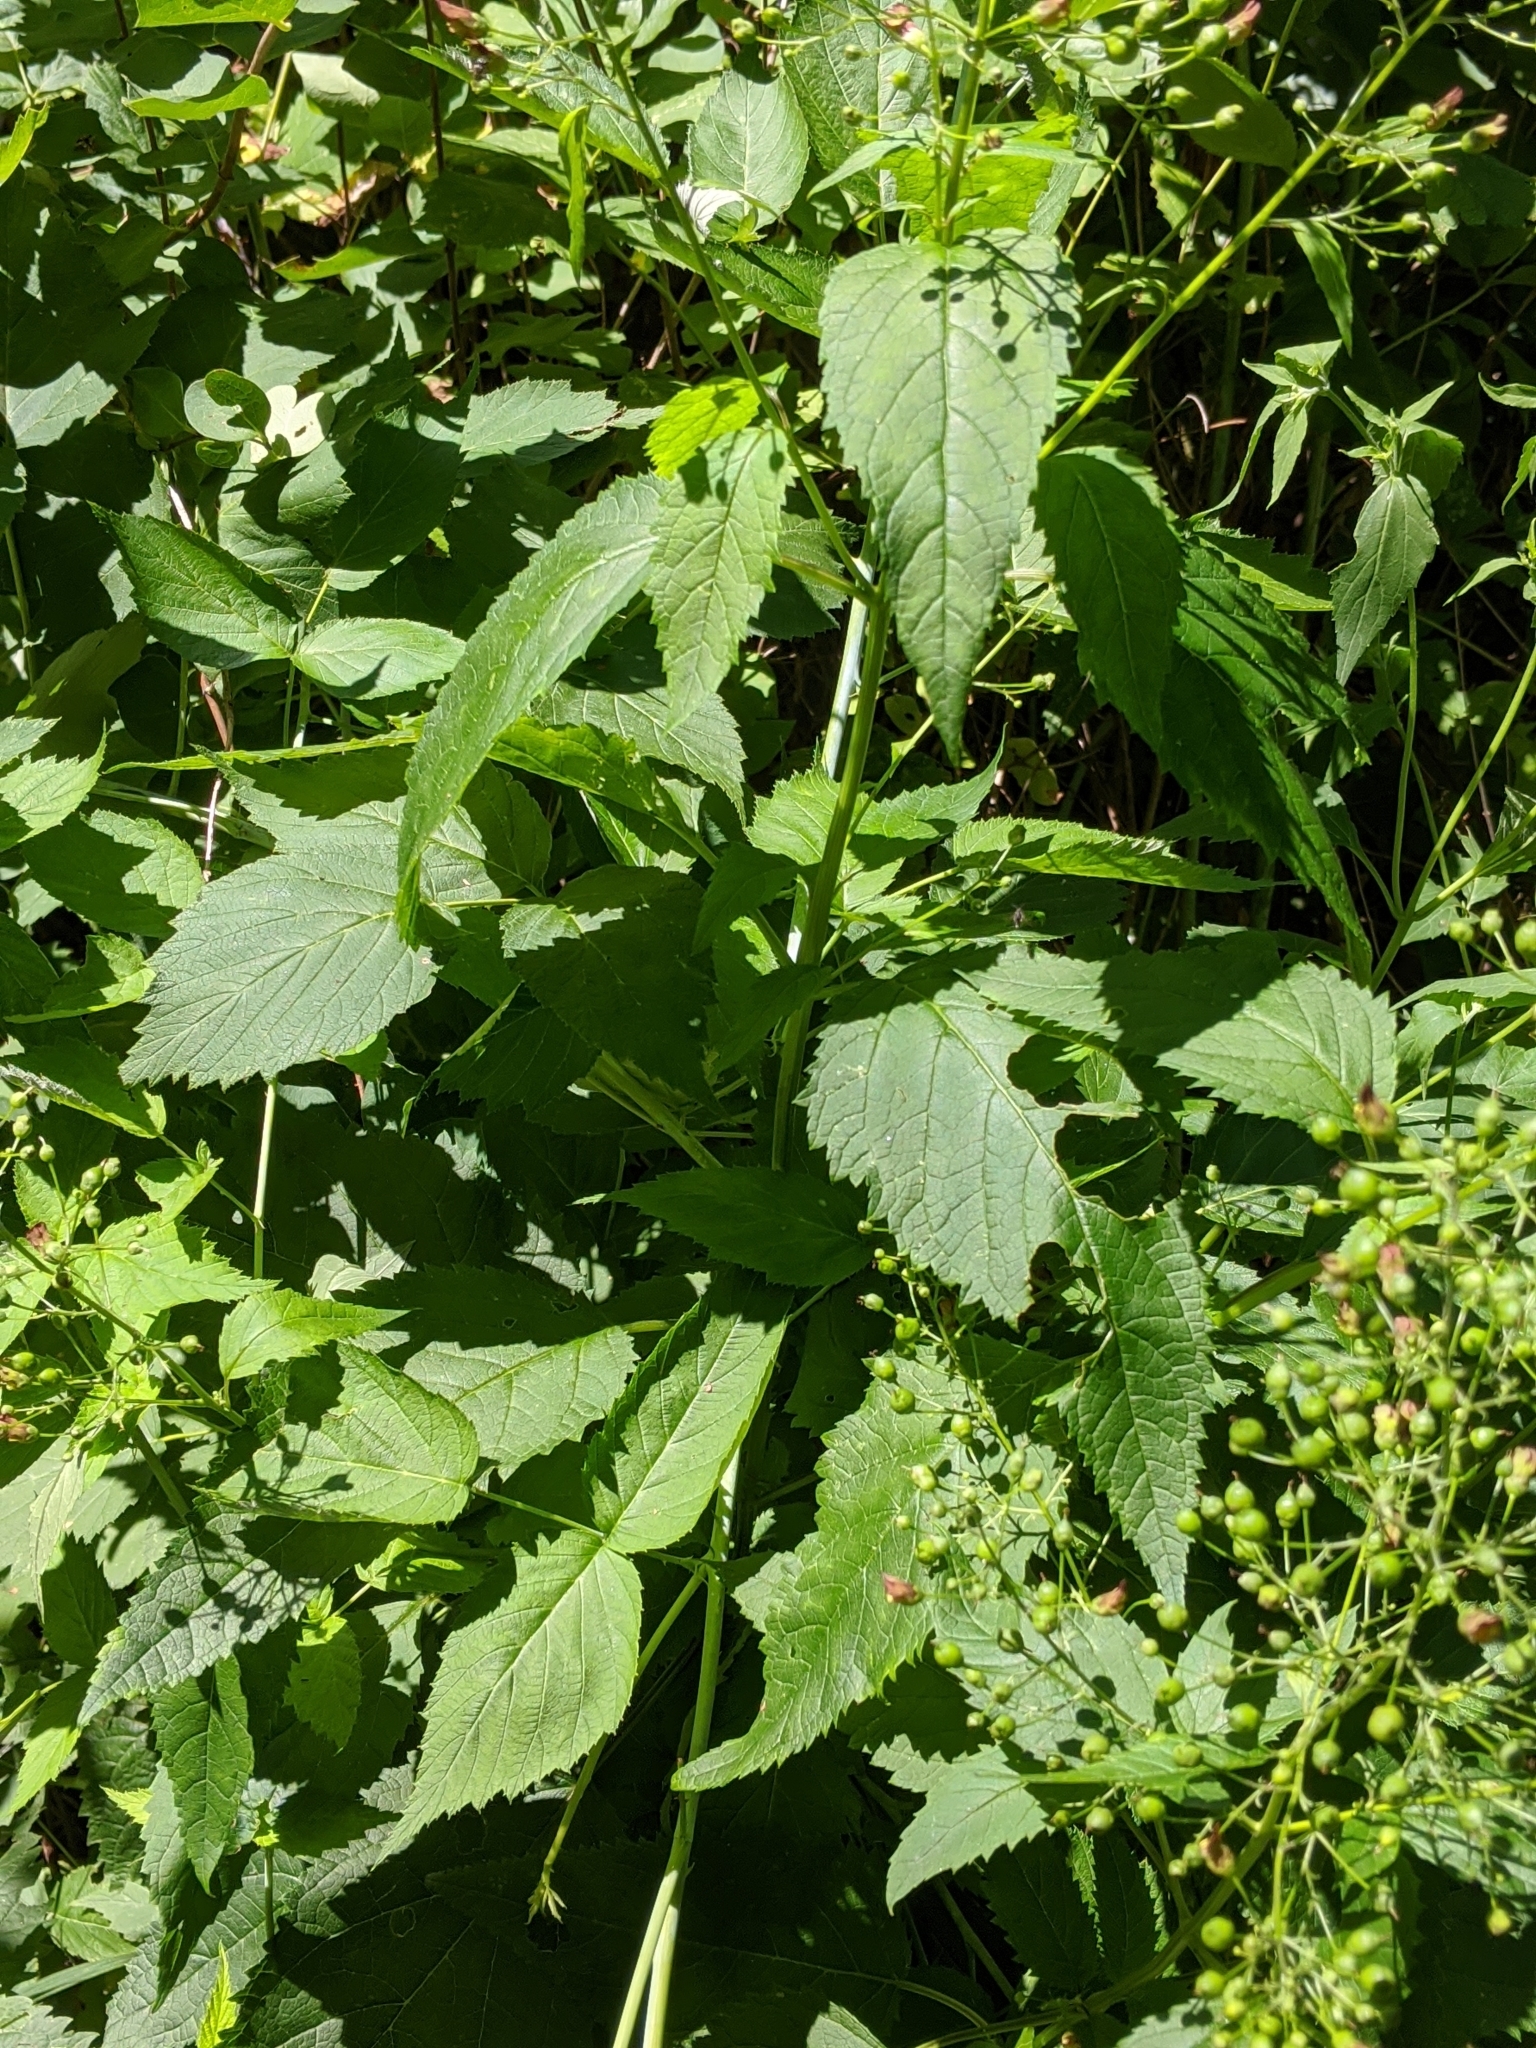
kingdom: Plantae
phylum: Tracheophyta
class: Magnoliopsida
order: Lamiales
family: Scrophulariaceae
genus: Scrophularia
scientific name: Scrophularia marilandica
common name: Eastern figwort
